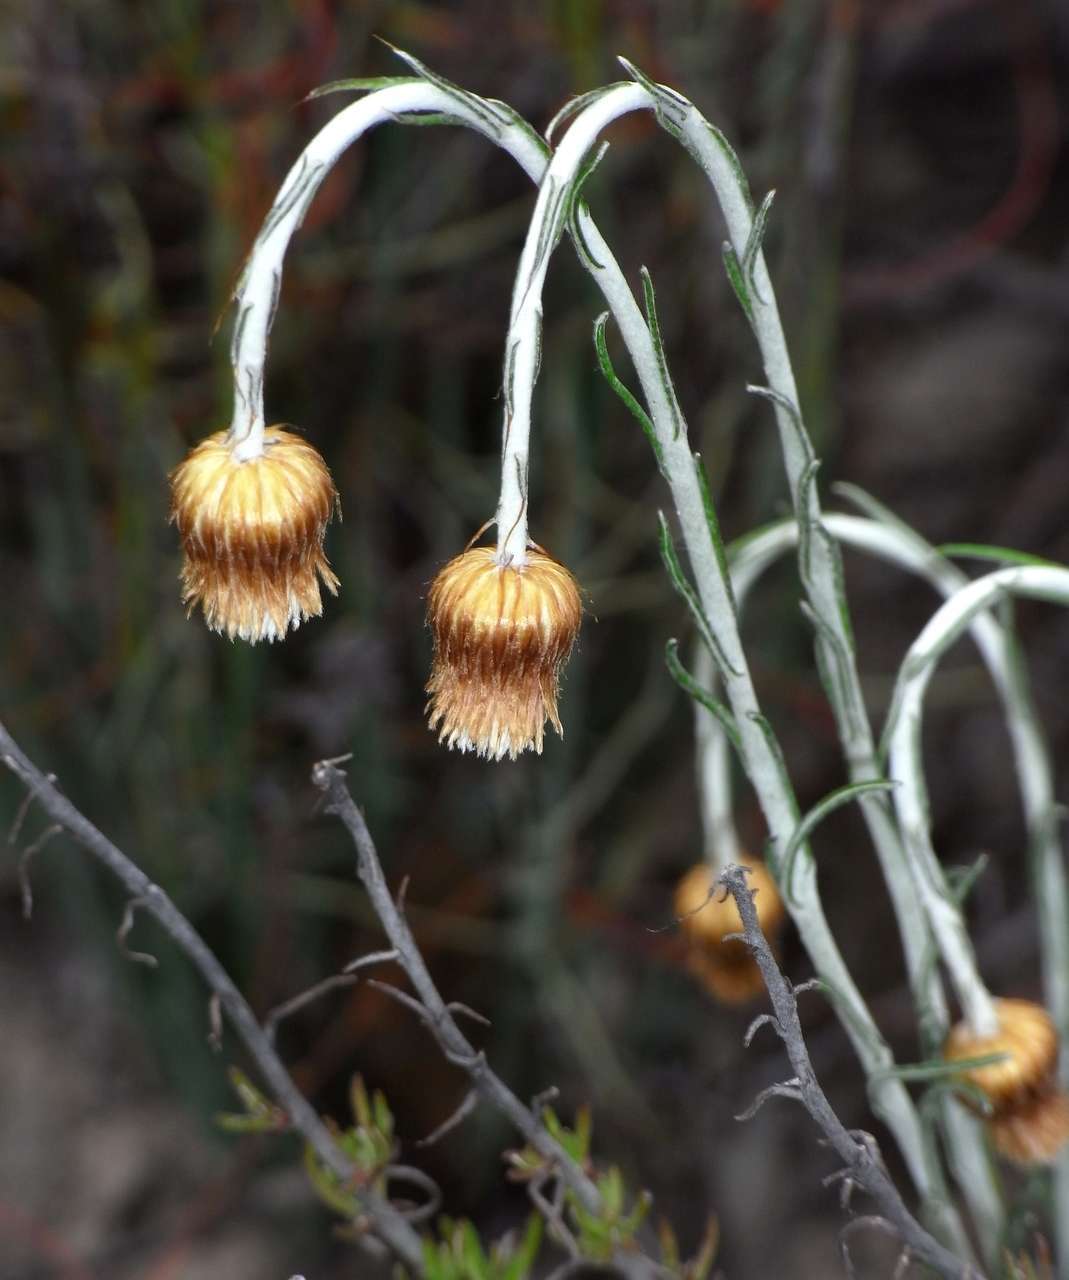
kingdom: Plantae
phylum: Tracheophyta
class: Magnoliopsida
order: Asterales
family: Asteraceae
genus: Chrysocephalum
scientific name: Chrysocephalum baxteri
